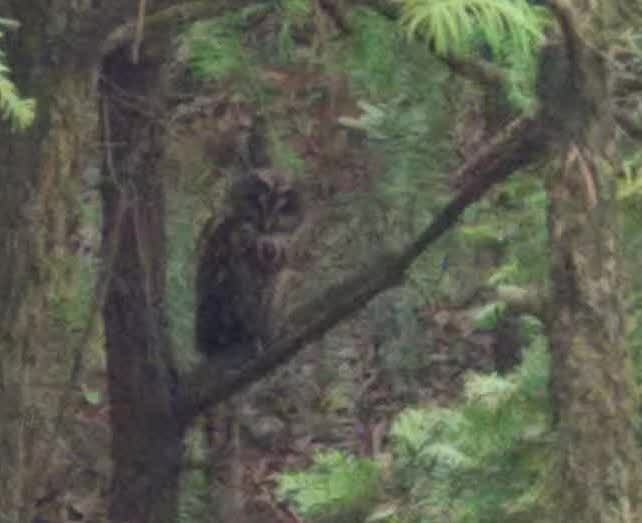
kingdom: Animalia
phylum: Chordata
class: Aves
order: Strigiformes
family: Strigidae
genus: Strix
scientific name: Strix nivicolum
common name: Himalayan owl
